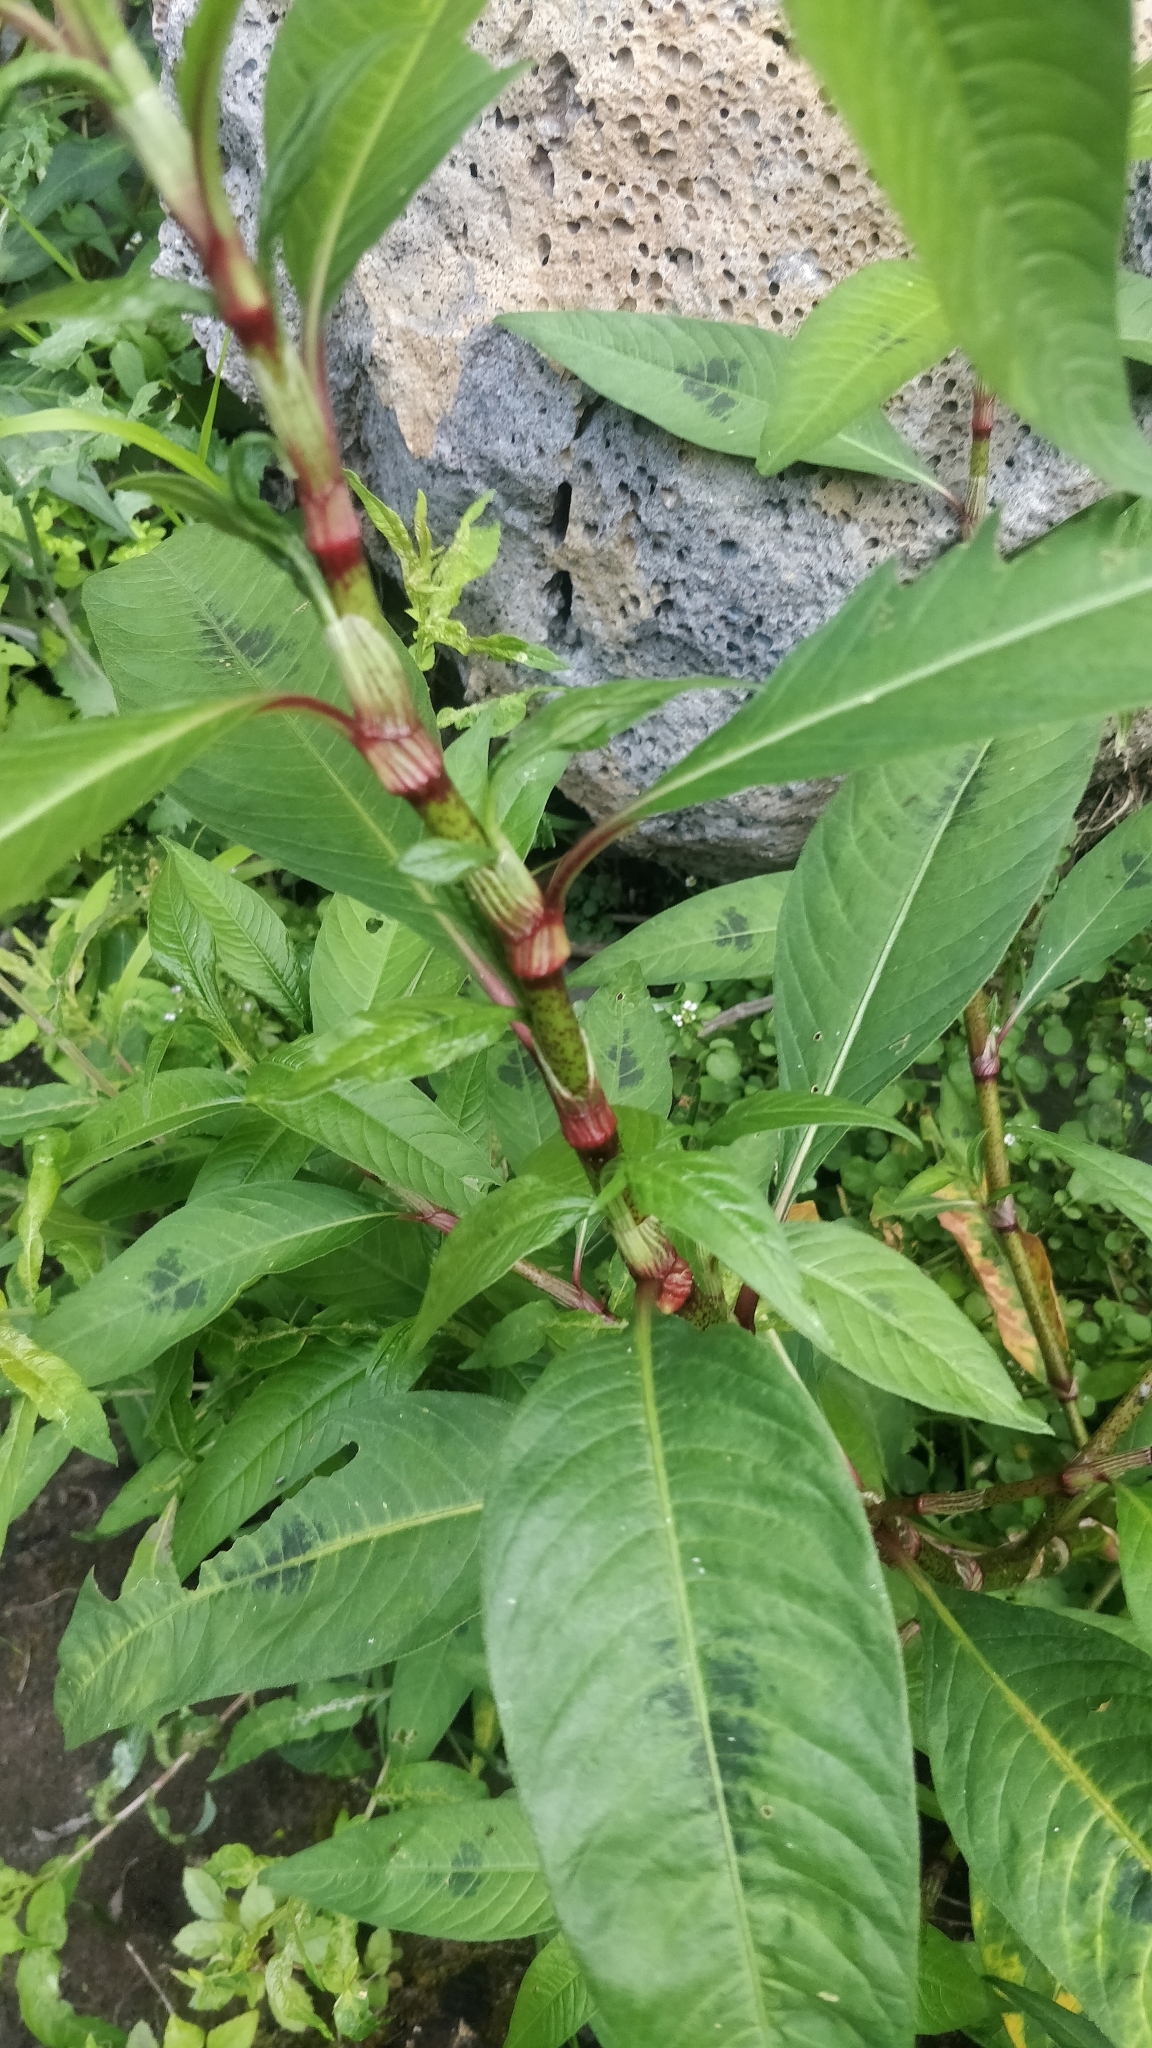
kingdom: Plantae
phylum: Tracheophyta
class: Magnoliopsida
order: Caryophyllales
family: Polygonaceae
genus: Persicaria
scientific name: Persicaria maculosa
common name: Redshank
